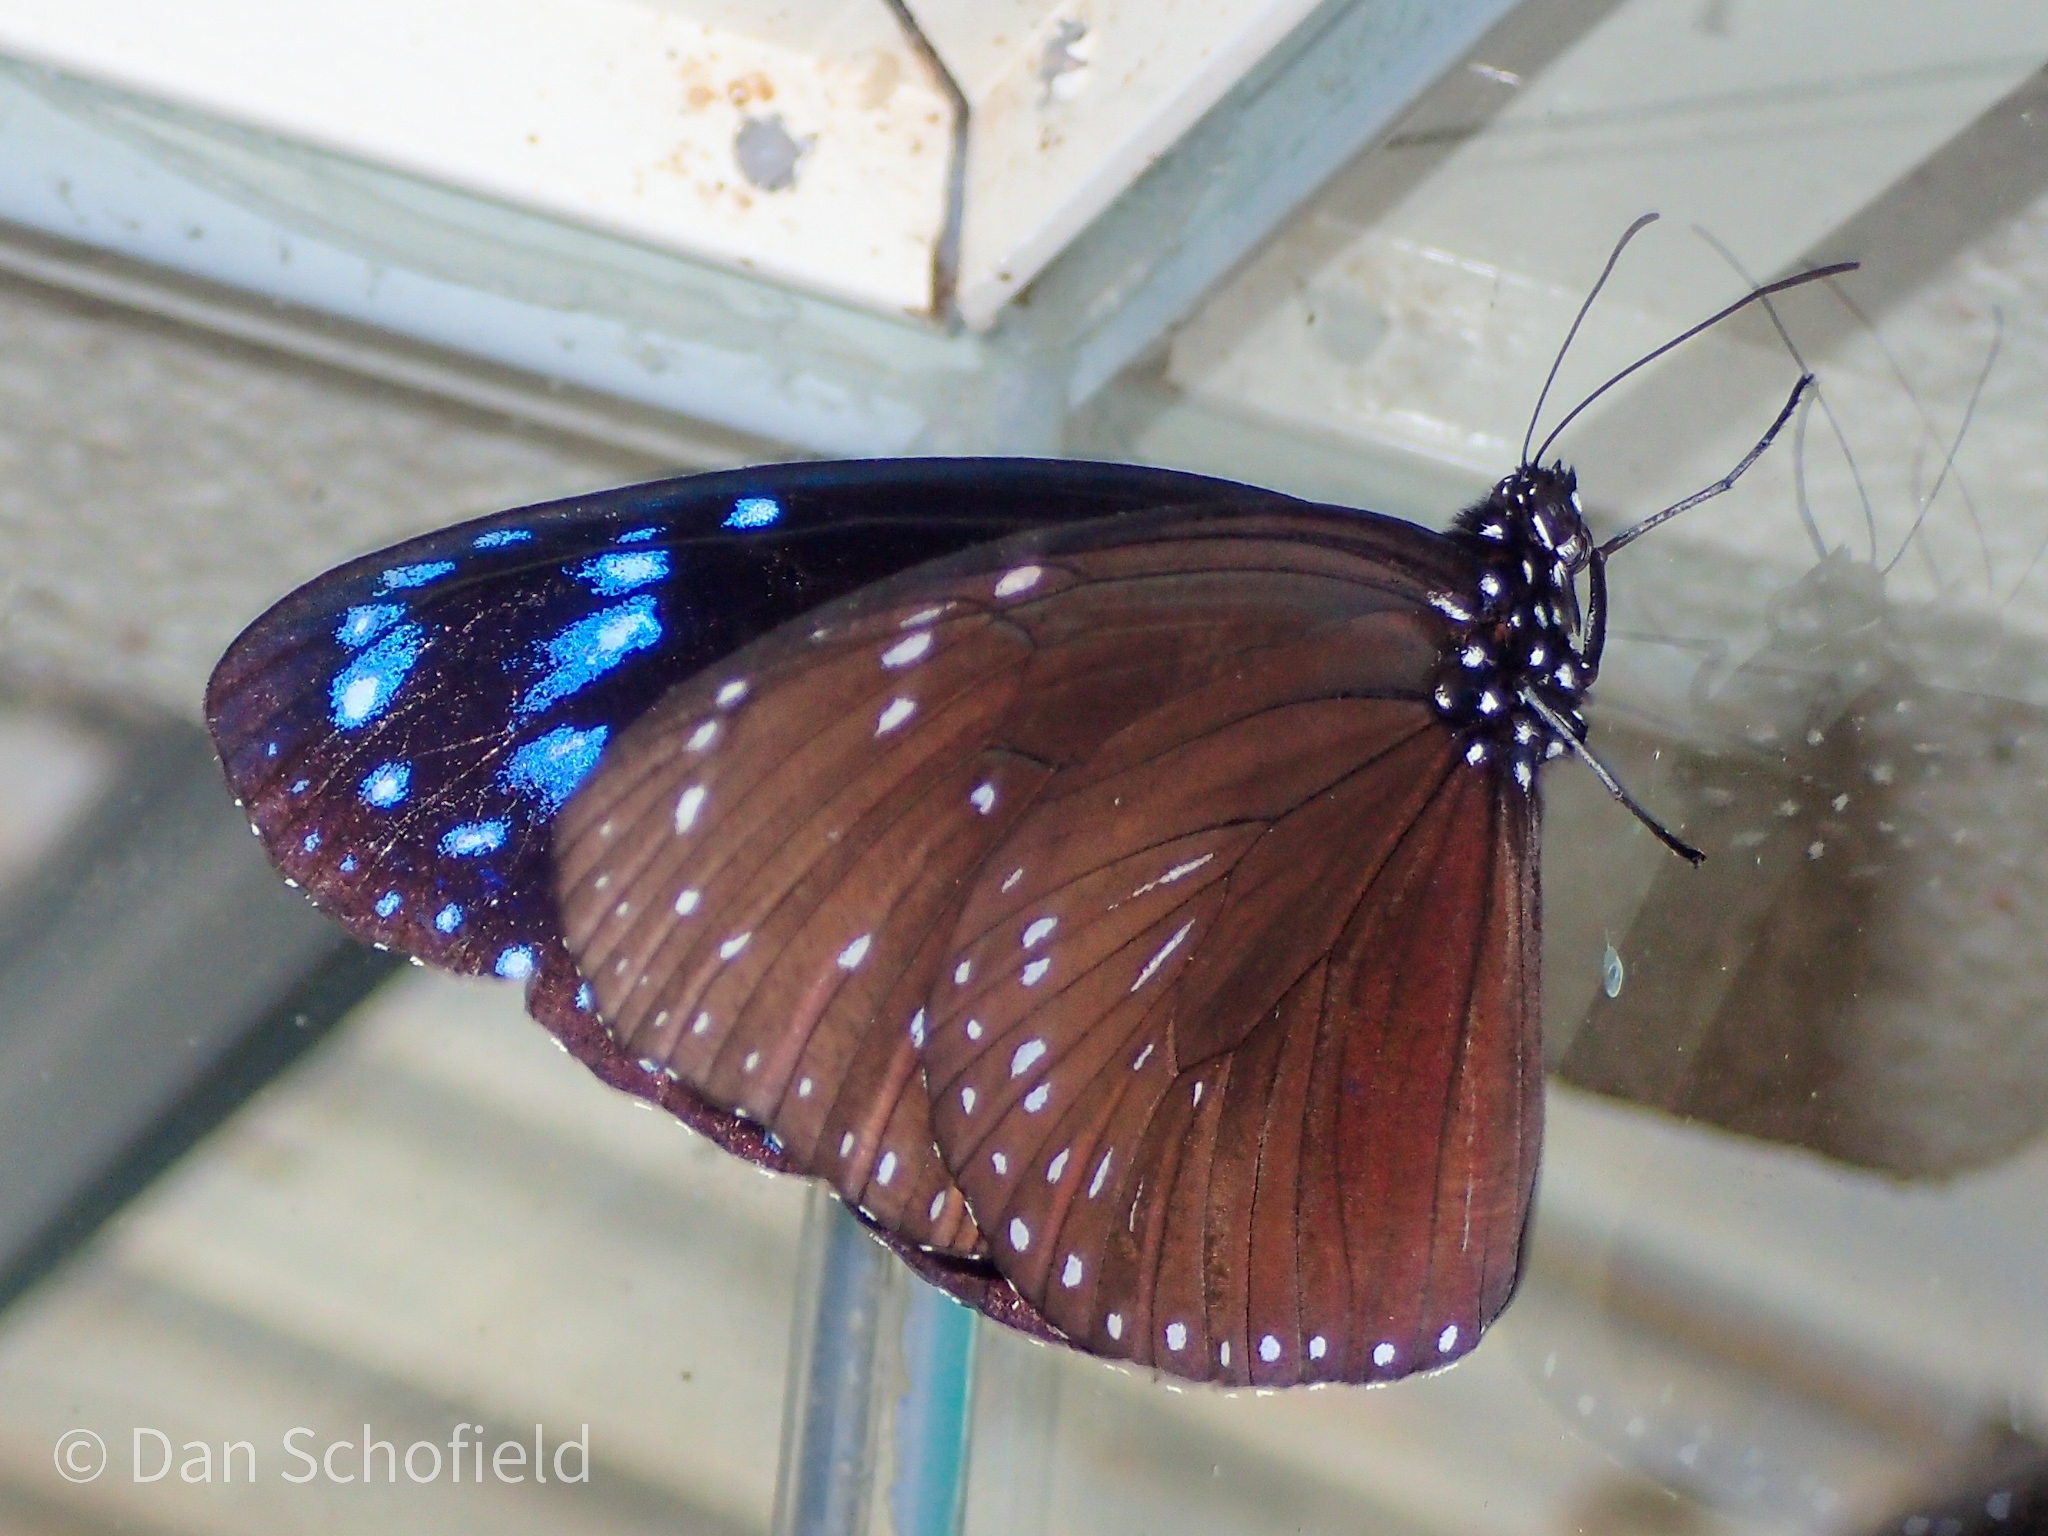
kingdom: Animalia
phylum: Arthropoda
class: Insecta
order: Lepidoptera
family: Nymphalidae
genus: Euploea
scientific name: Euploea mulciber
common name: Striped blue crow butterfly
